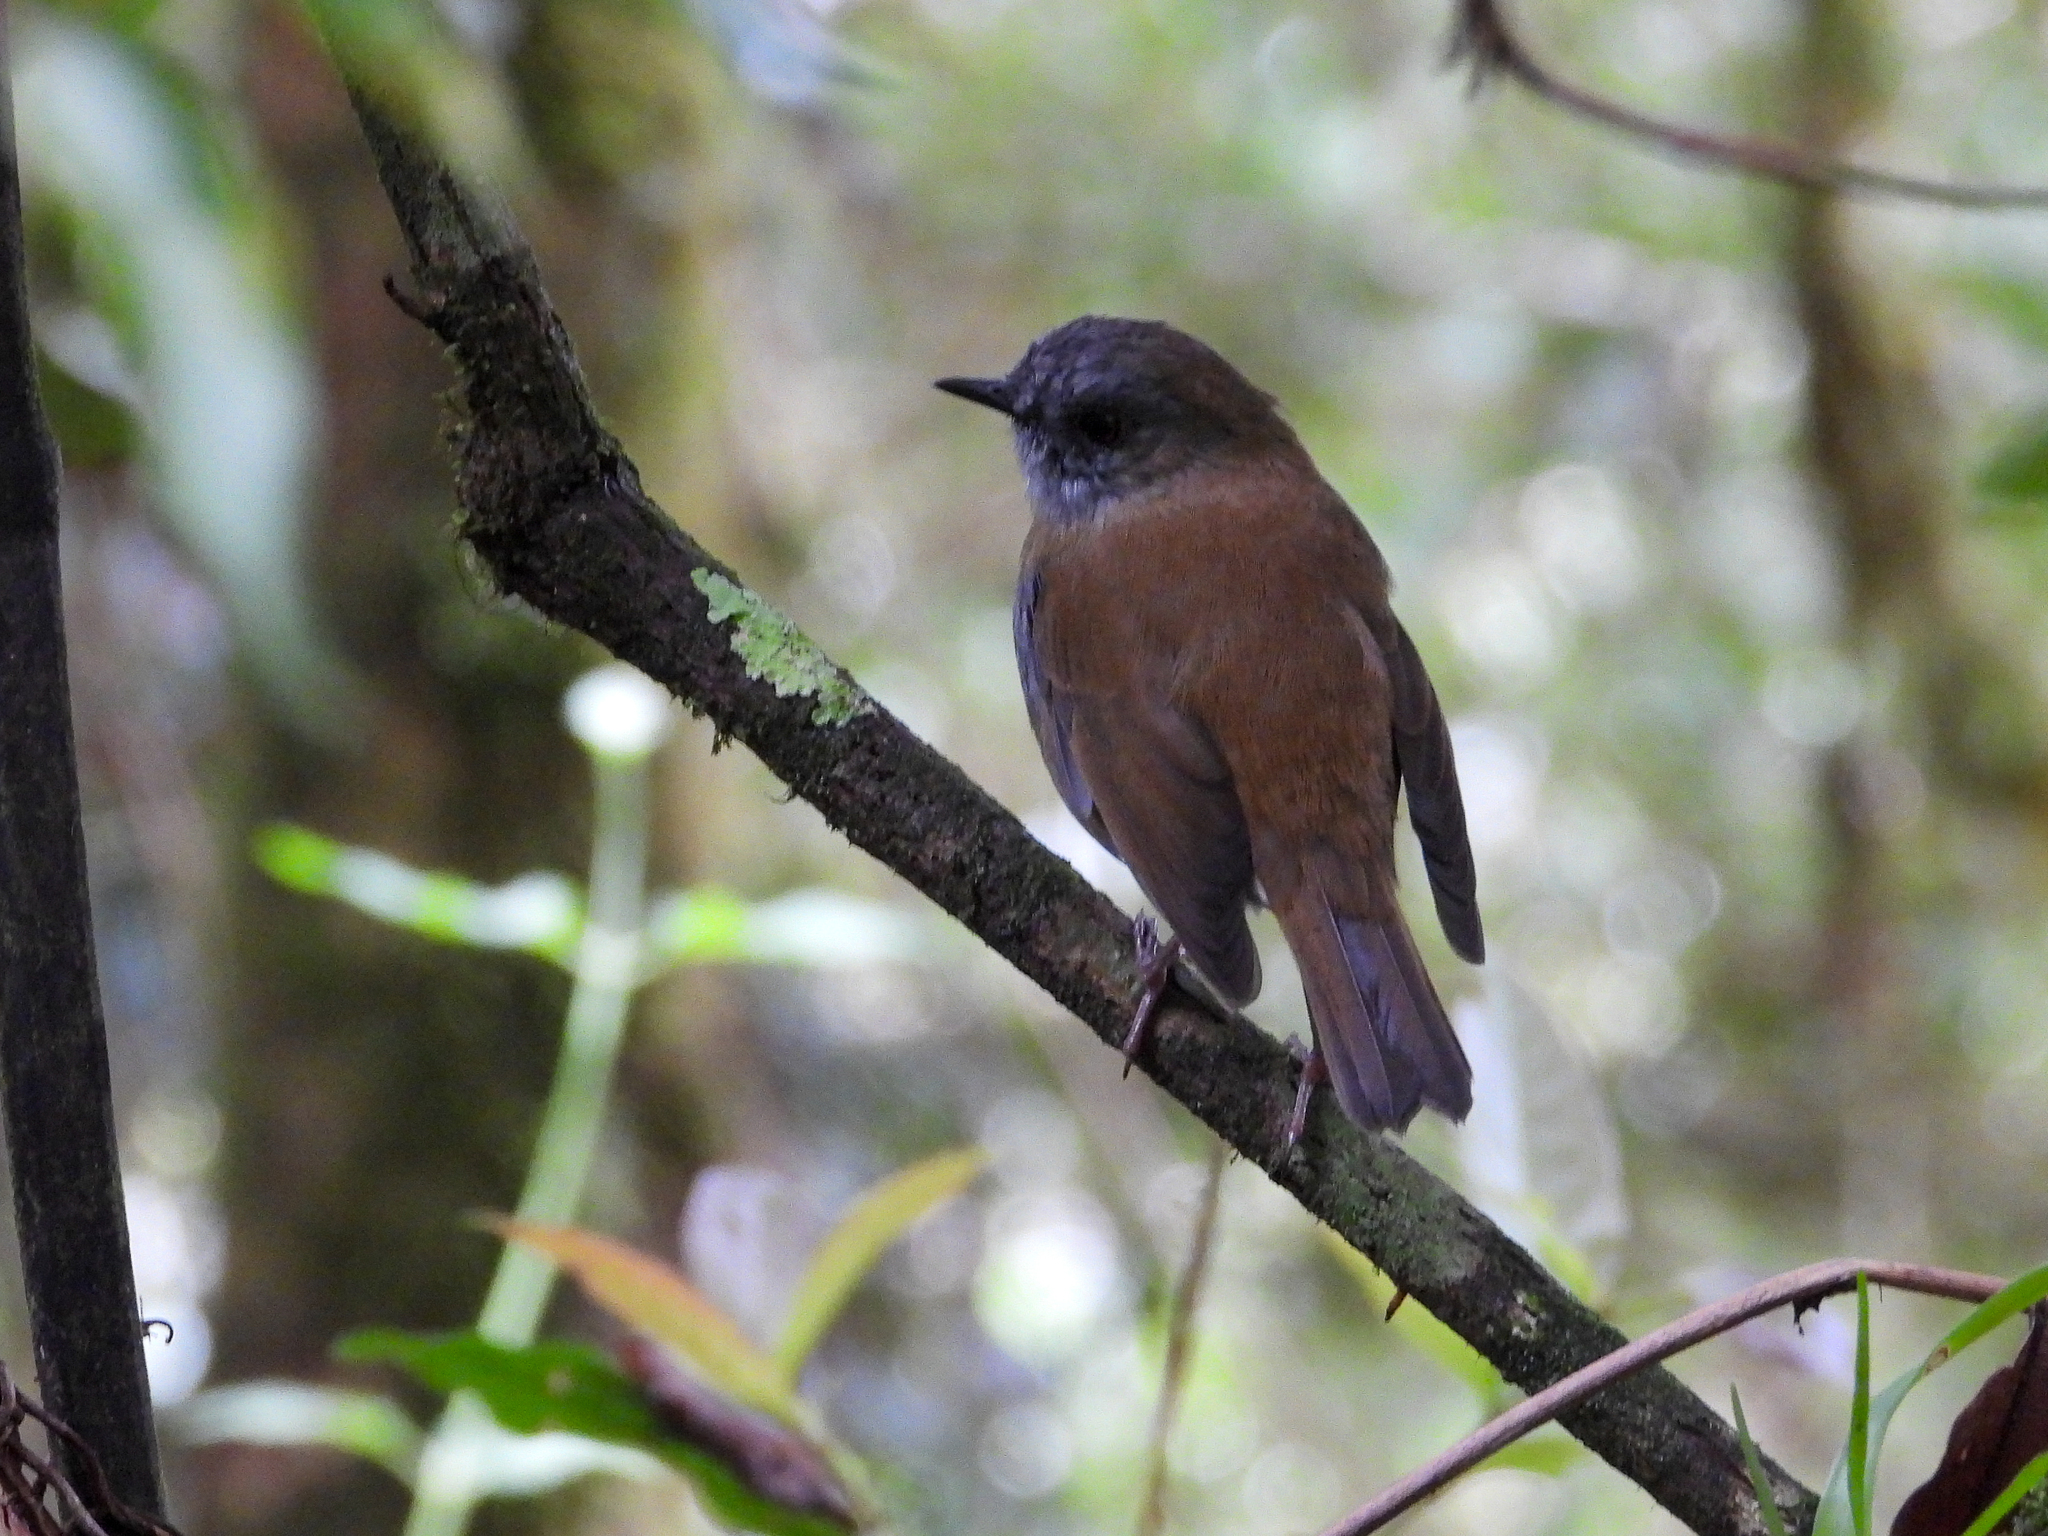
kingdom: Animalia
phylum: Chordata
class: Aves
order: Passeriformes
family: Turdidae
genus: Catharus
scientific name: Catharus gracilirostris
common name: Black-billed nightingale-thrush
